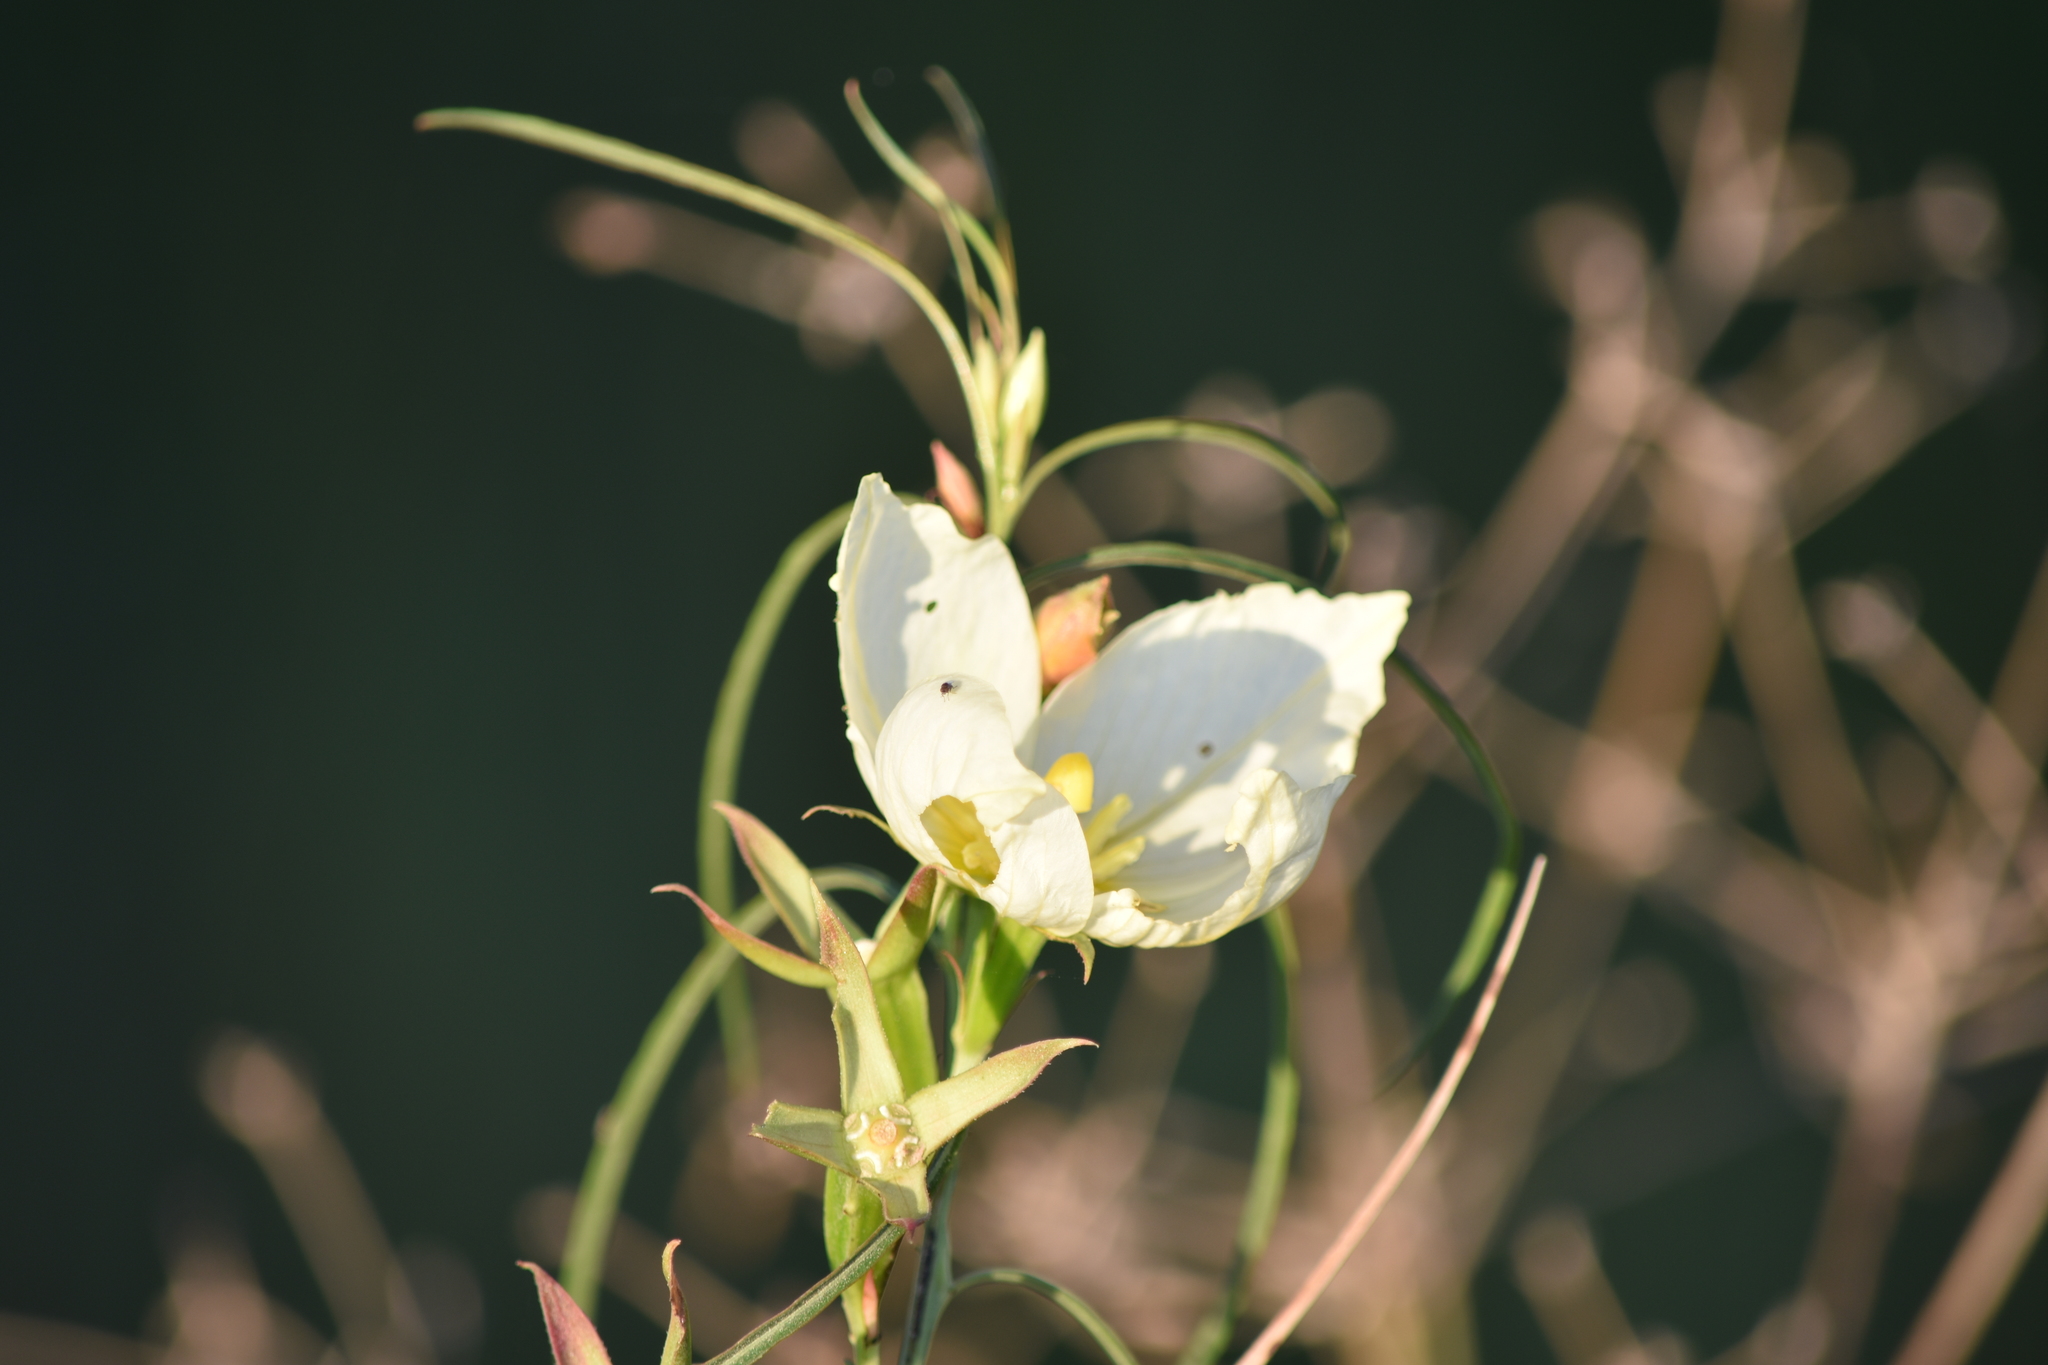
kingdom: Plantae
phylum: Tracheophyta
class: Magnoliopsida
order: Myrtales
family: Onagraceae
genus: Ludwigia
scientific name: Ludwigia major
